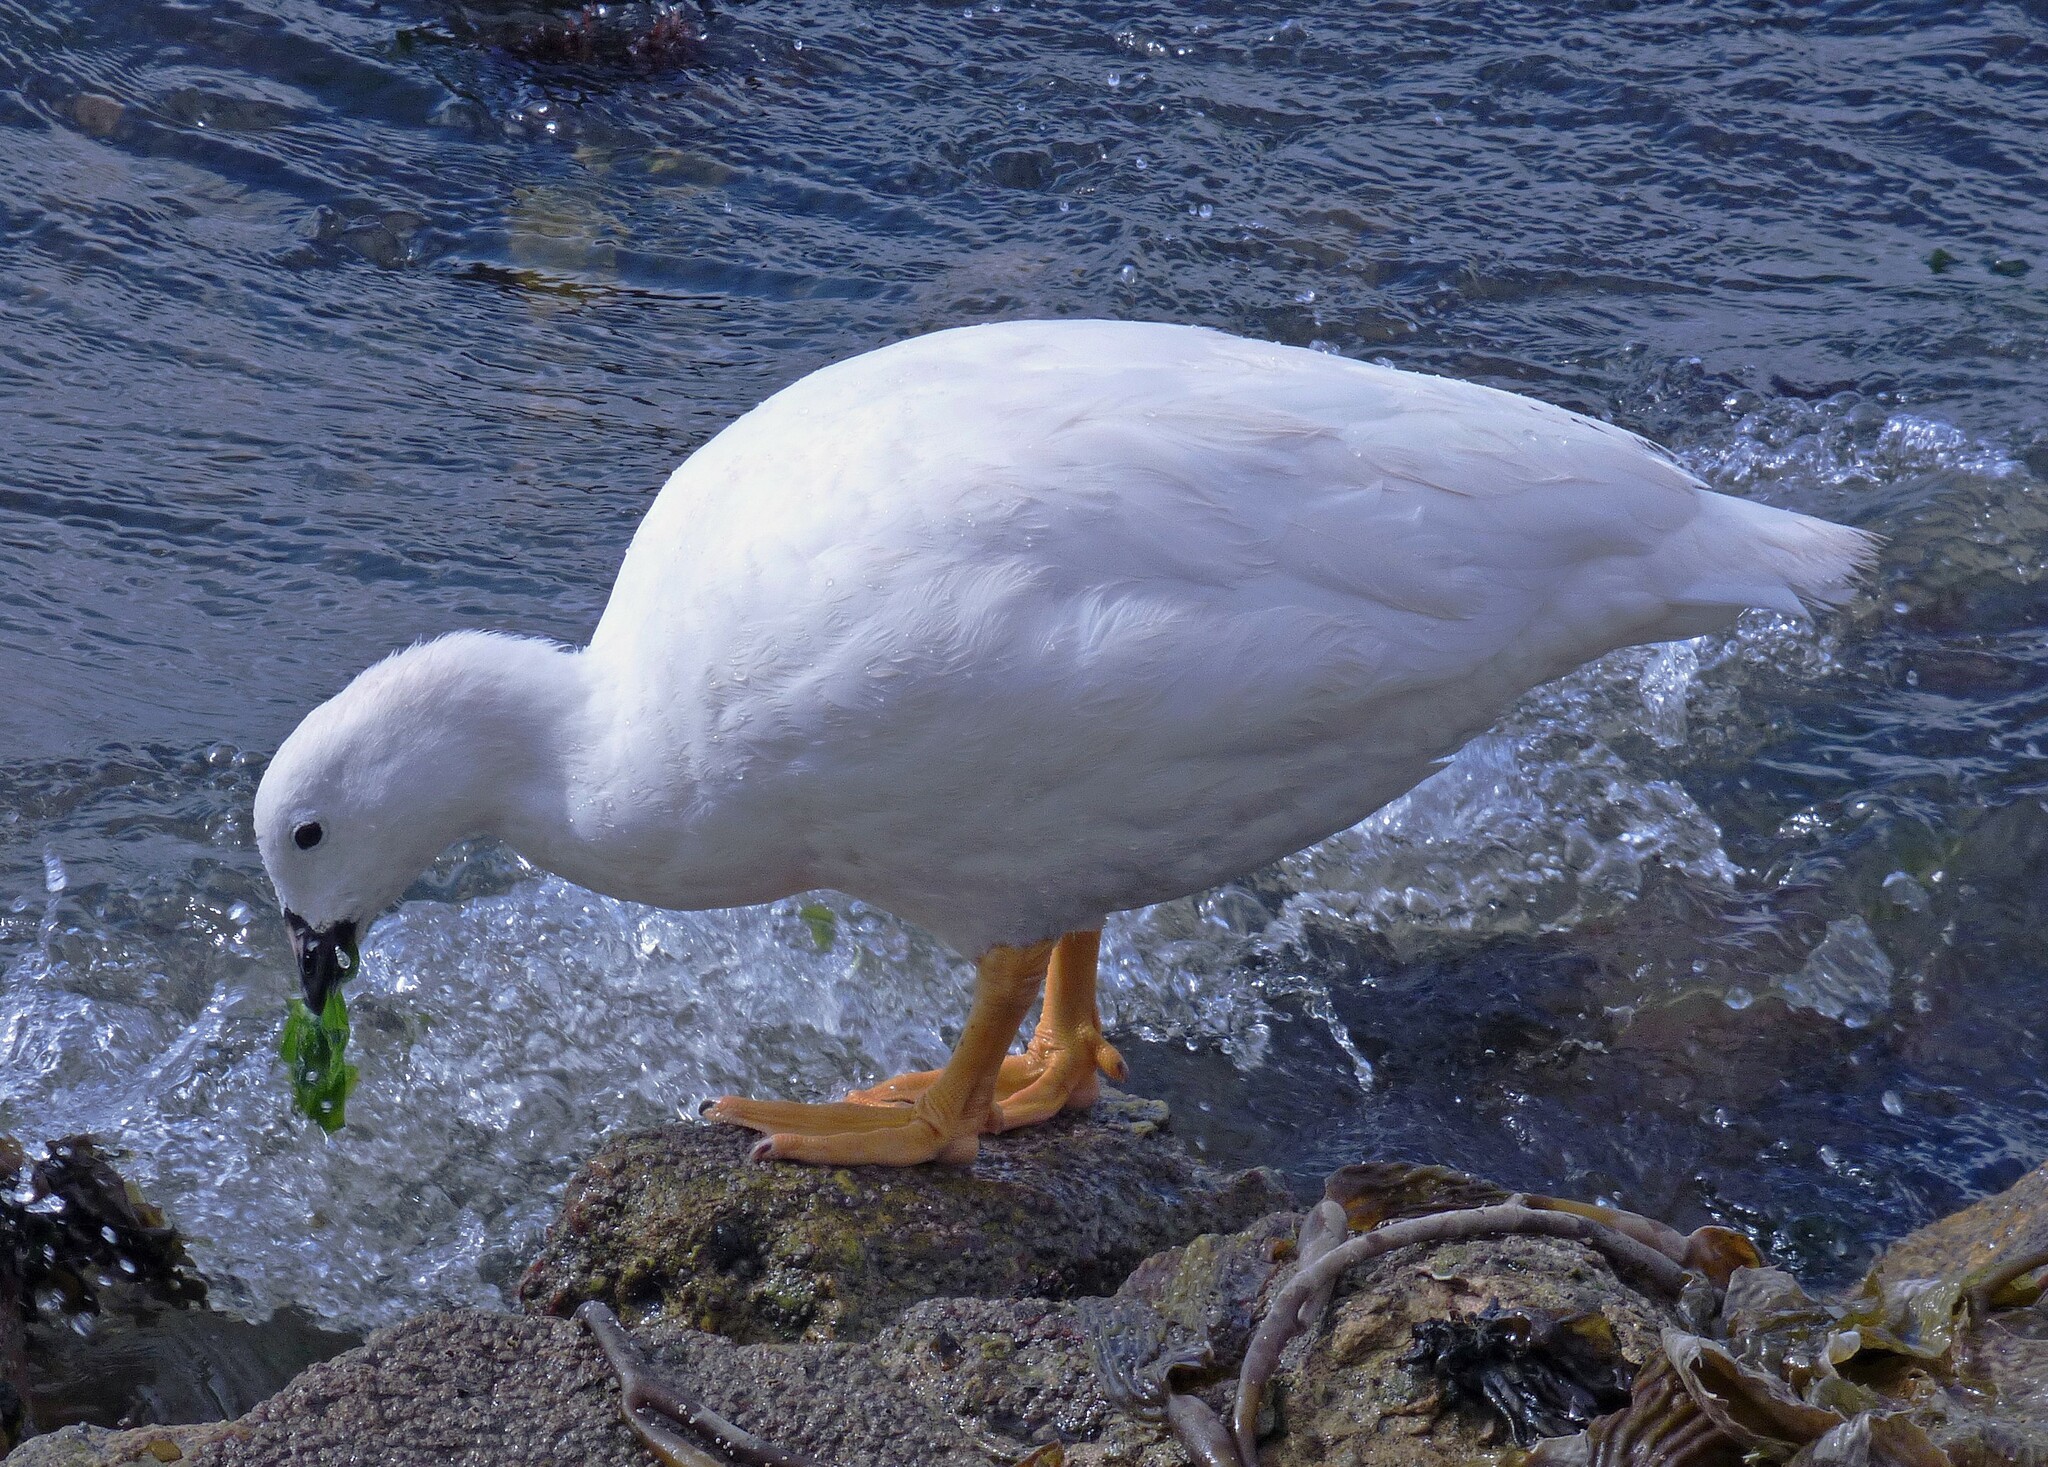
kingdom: Animalia
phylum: Chordata
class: Aves
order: Anseriformes
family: Anatidae
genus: Chloephaga
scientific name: Chloephaga hybrida
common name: Kelp goose
